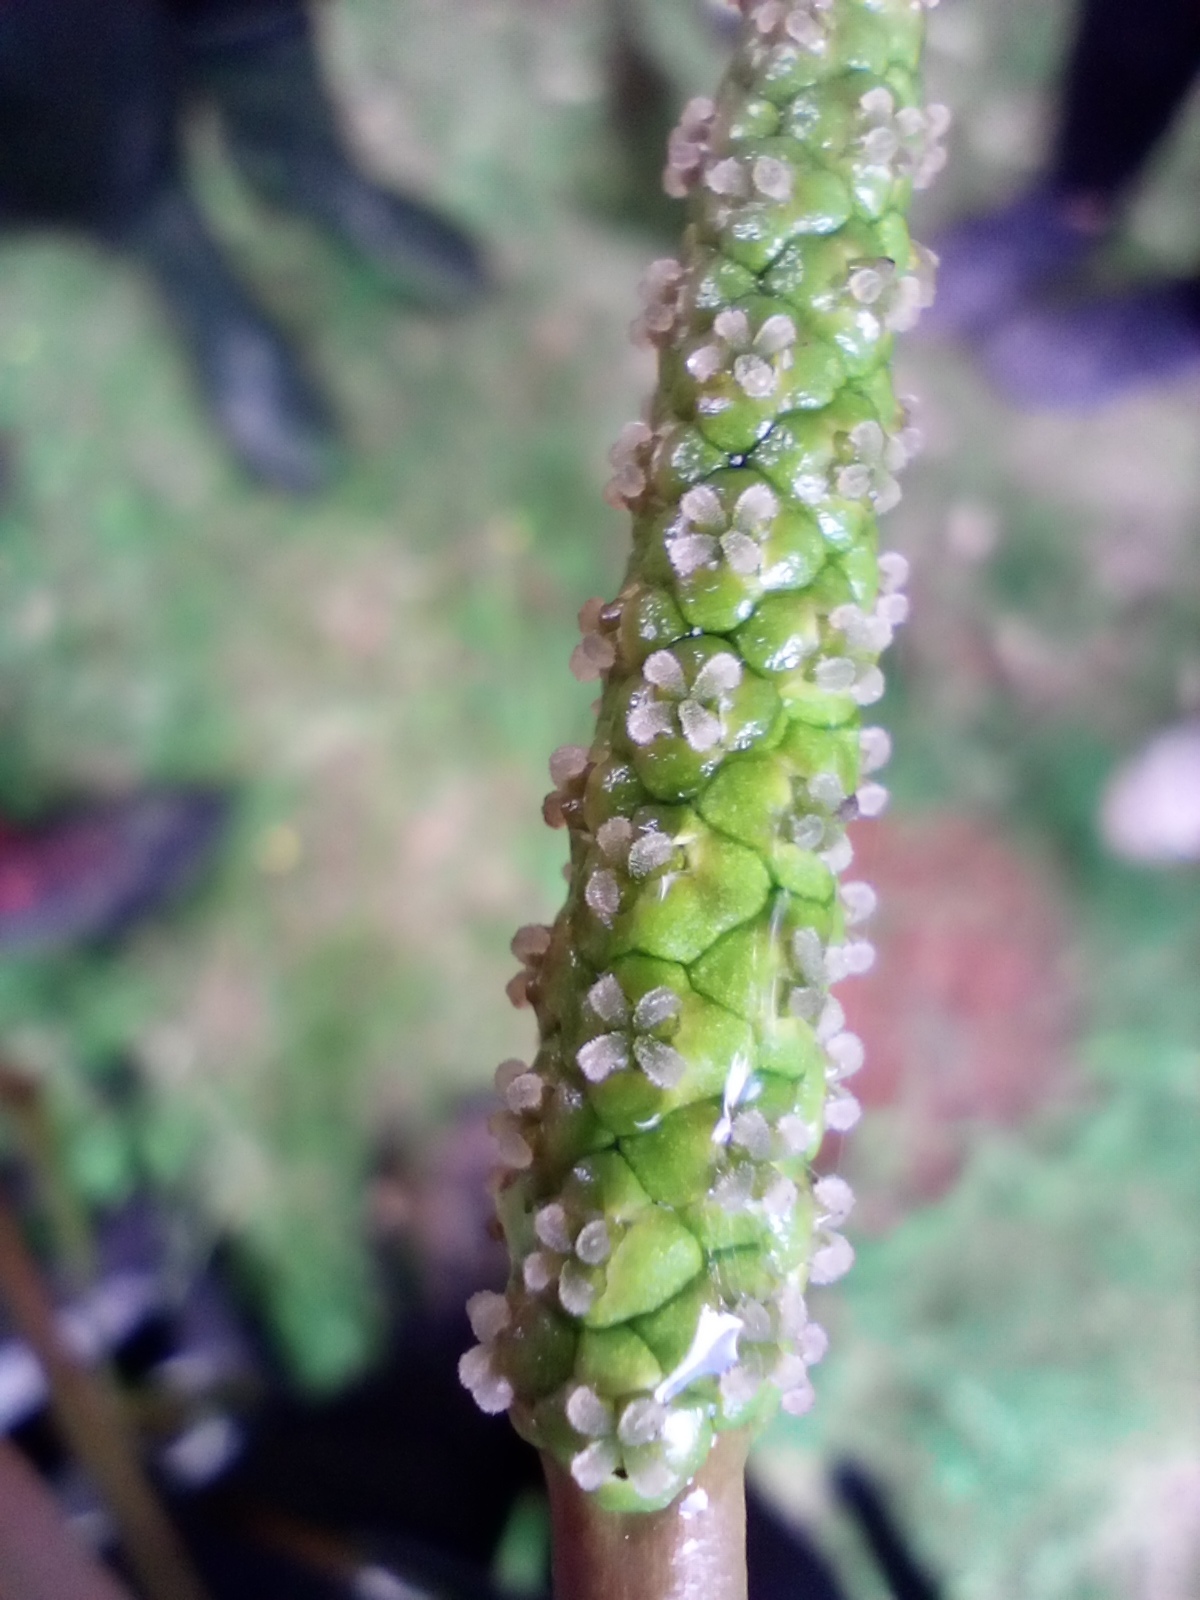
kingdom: Plantae
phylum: Tracheophyta
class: Liliopsida
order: Alismatales
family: Potamogetonaceae
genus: Potamogeton
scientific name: Potamogeton natans
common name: Broad-leaved pondweed
